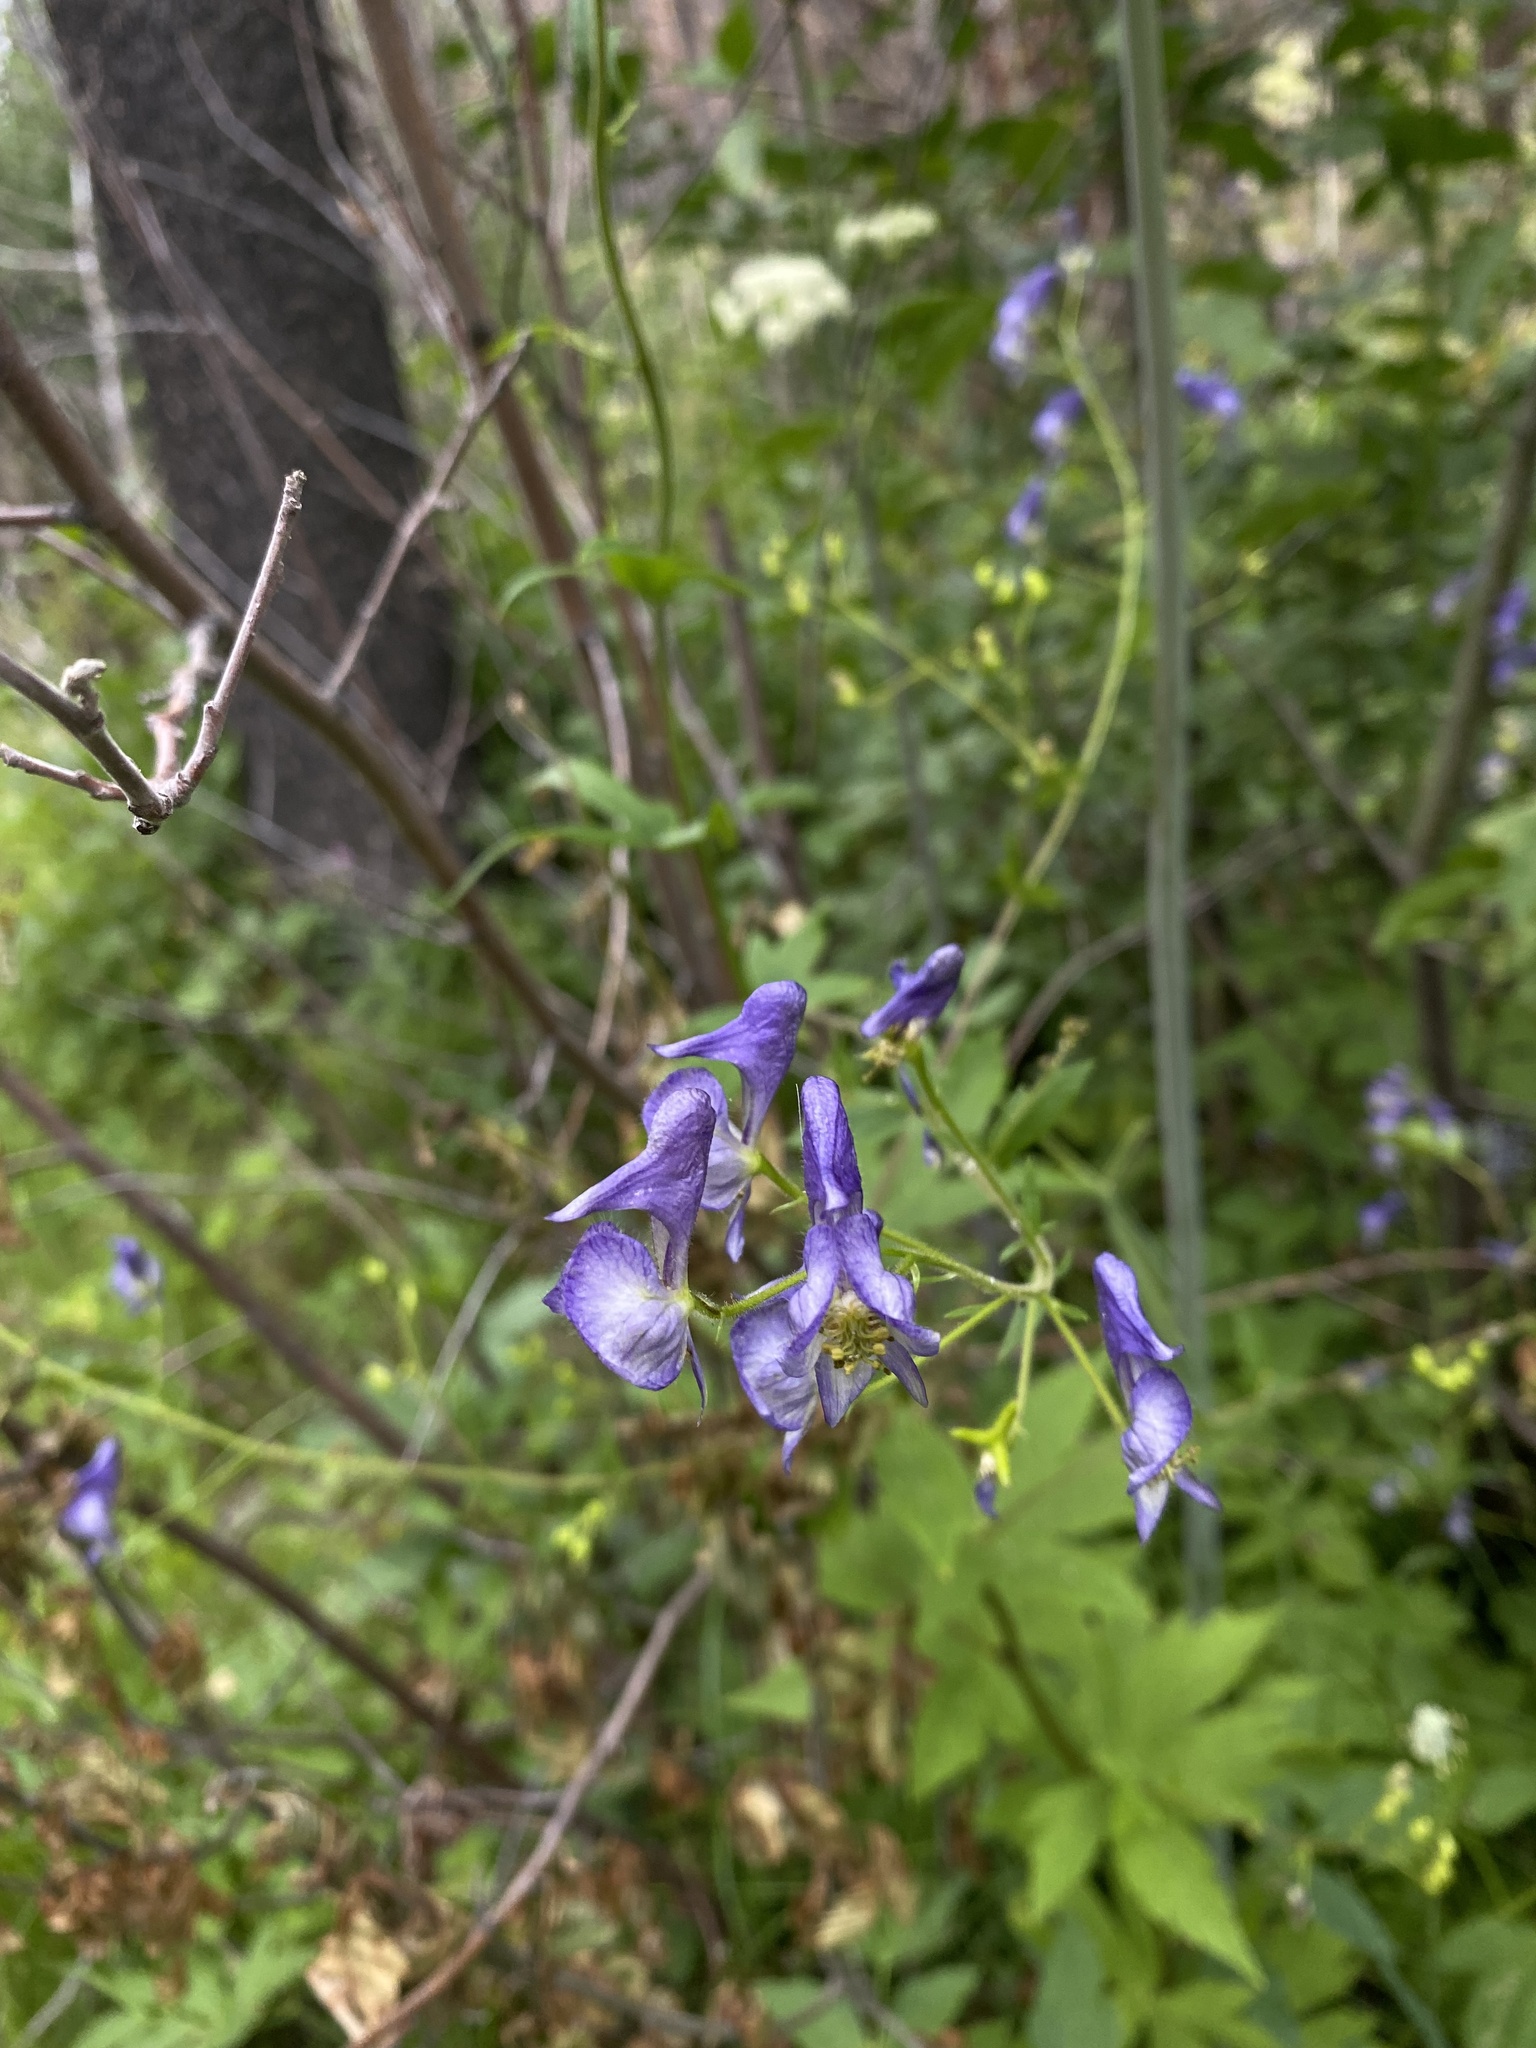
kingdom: Plantae
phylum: Tracheophyta
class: Magnoliopsida
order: Ranunculales
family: Ranunculaceae
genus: Aconitum
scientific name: Aconitum columbianum
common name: Columbia aconite
